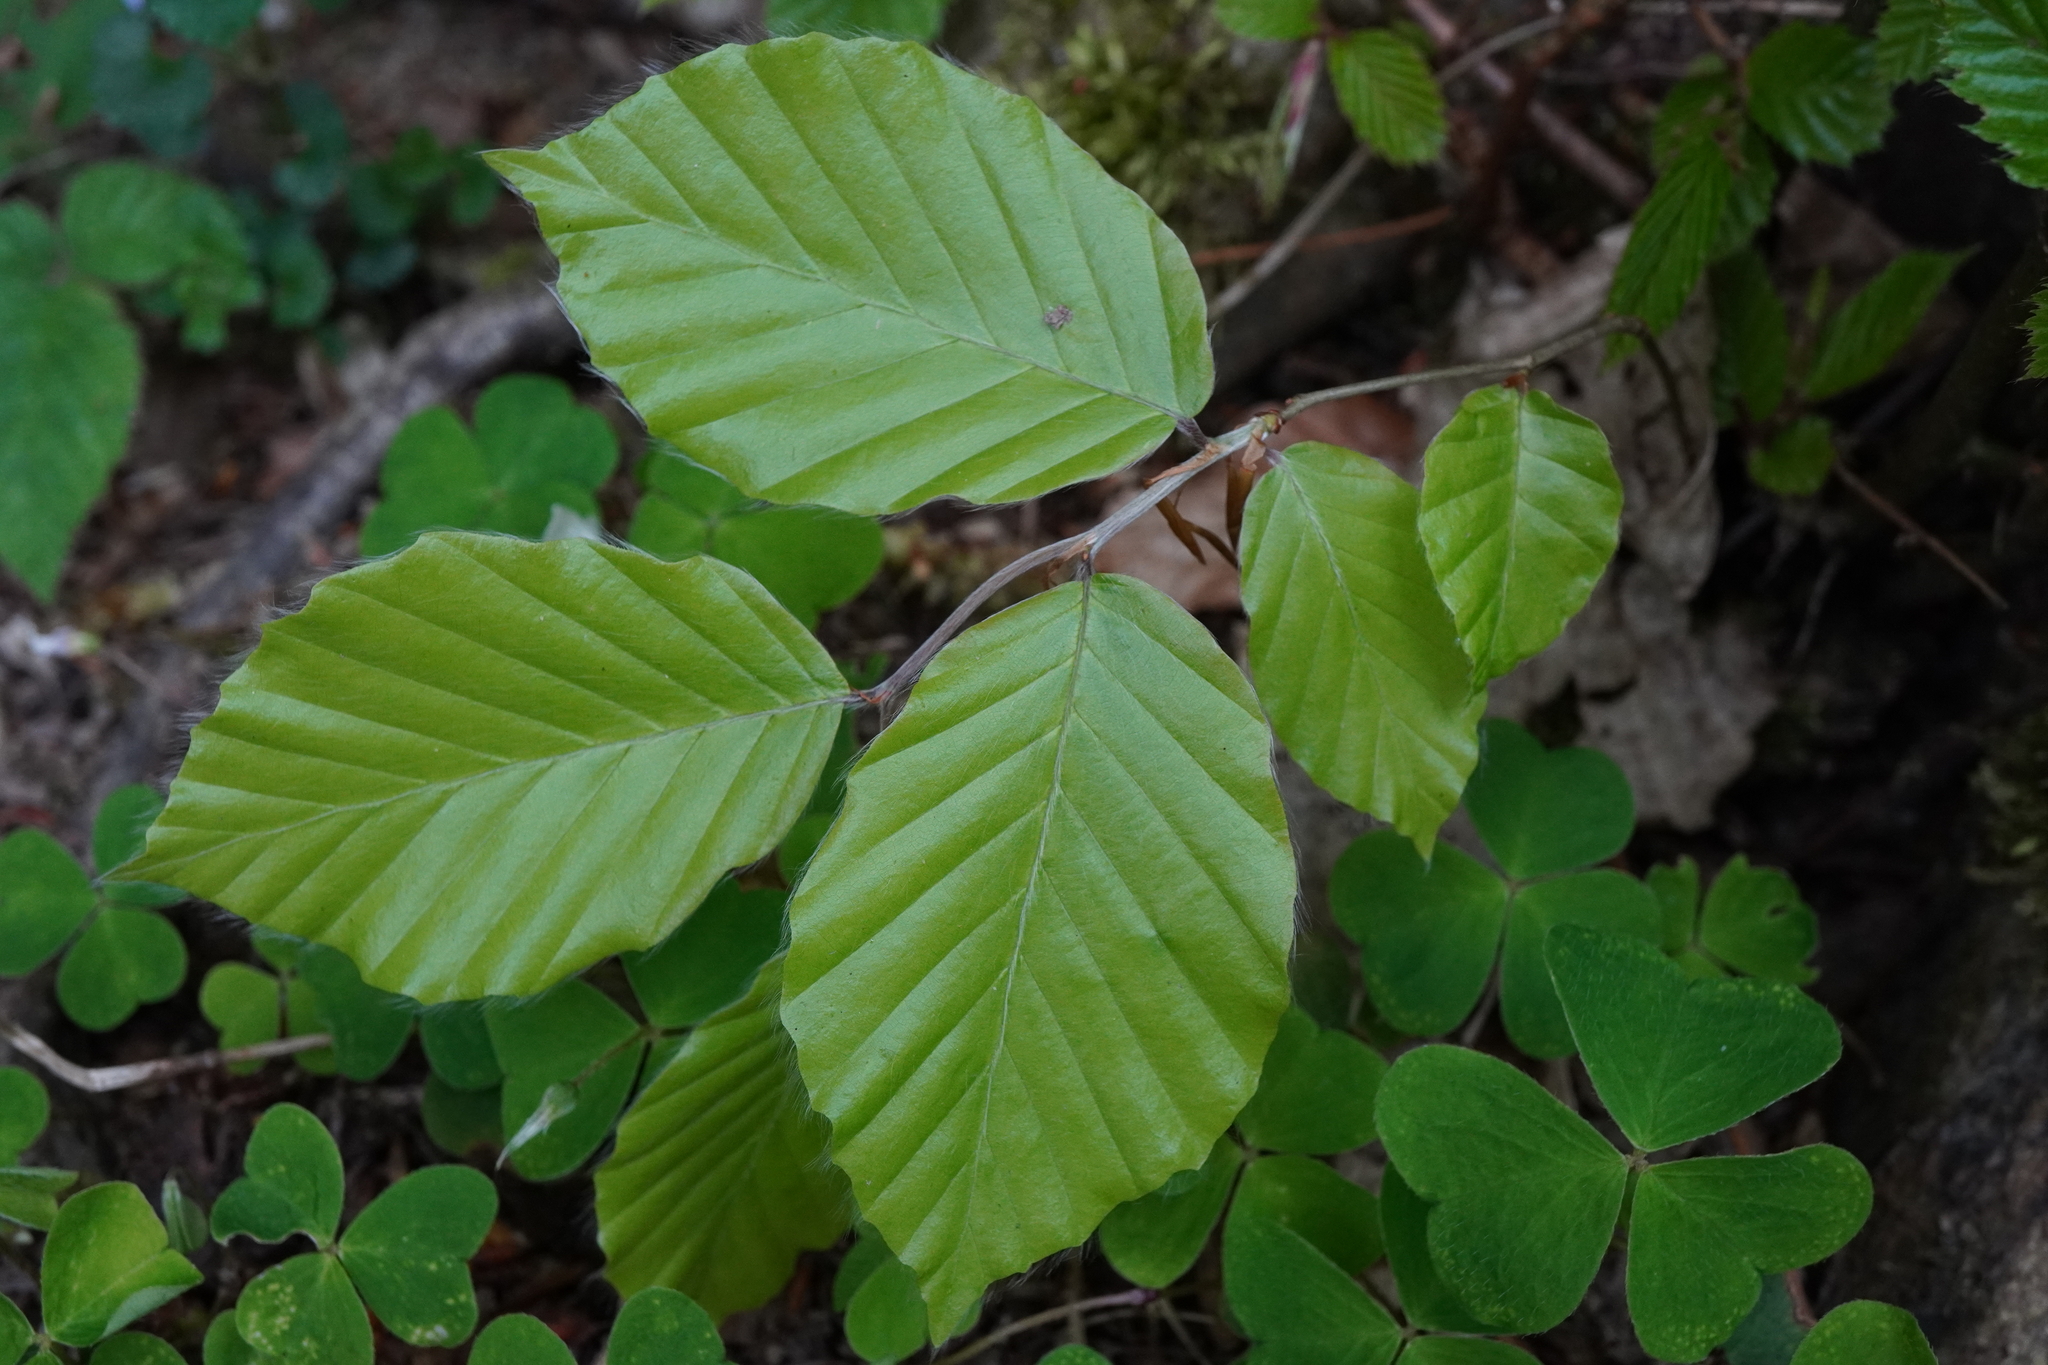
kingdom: Plantae
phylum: Tracheophyta
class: Magnoliopsida
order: Fagales
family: Fagaceae
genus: Fagus
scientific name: Fagus sylvatica
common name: Beech
